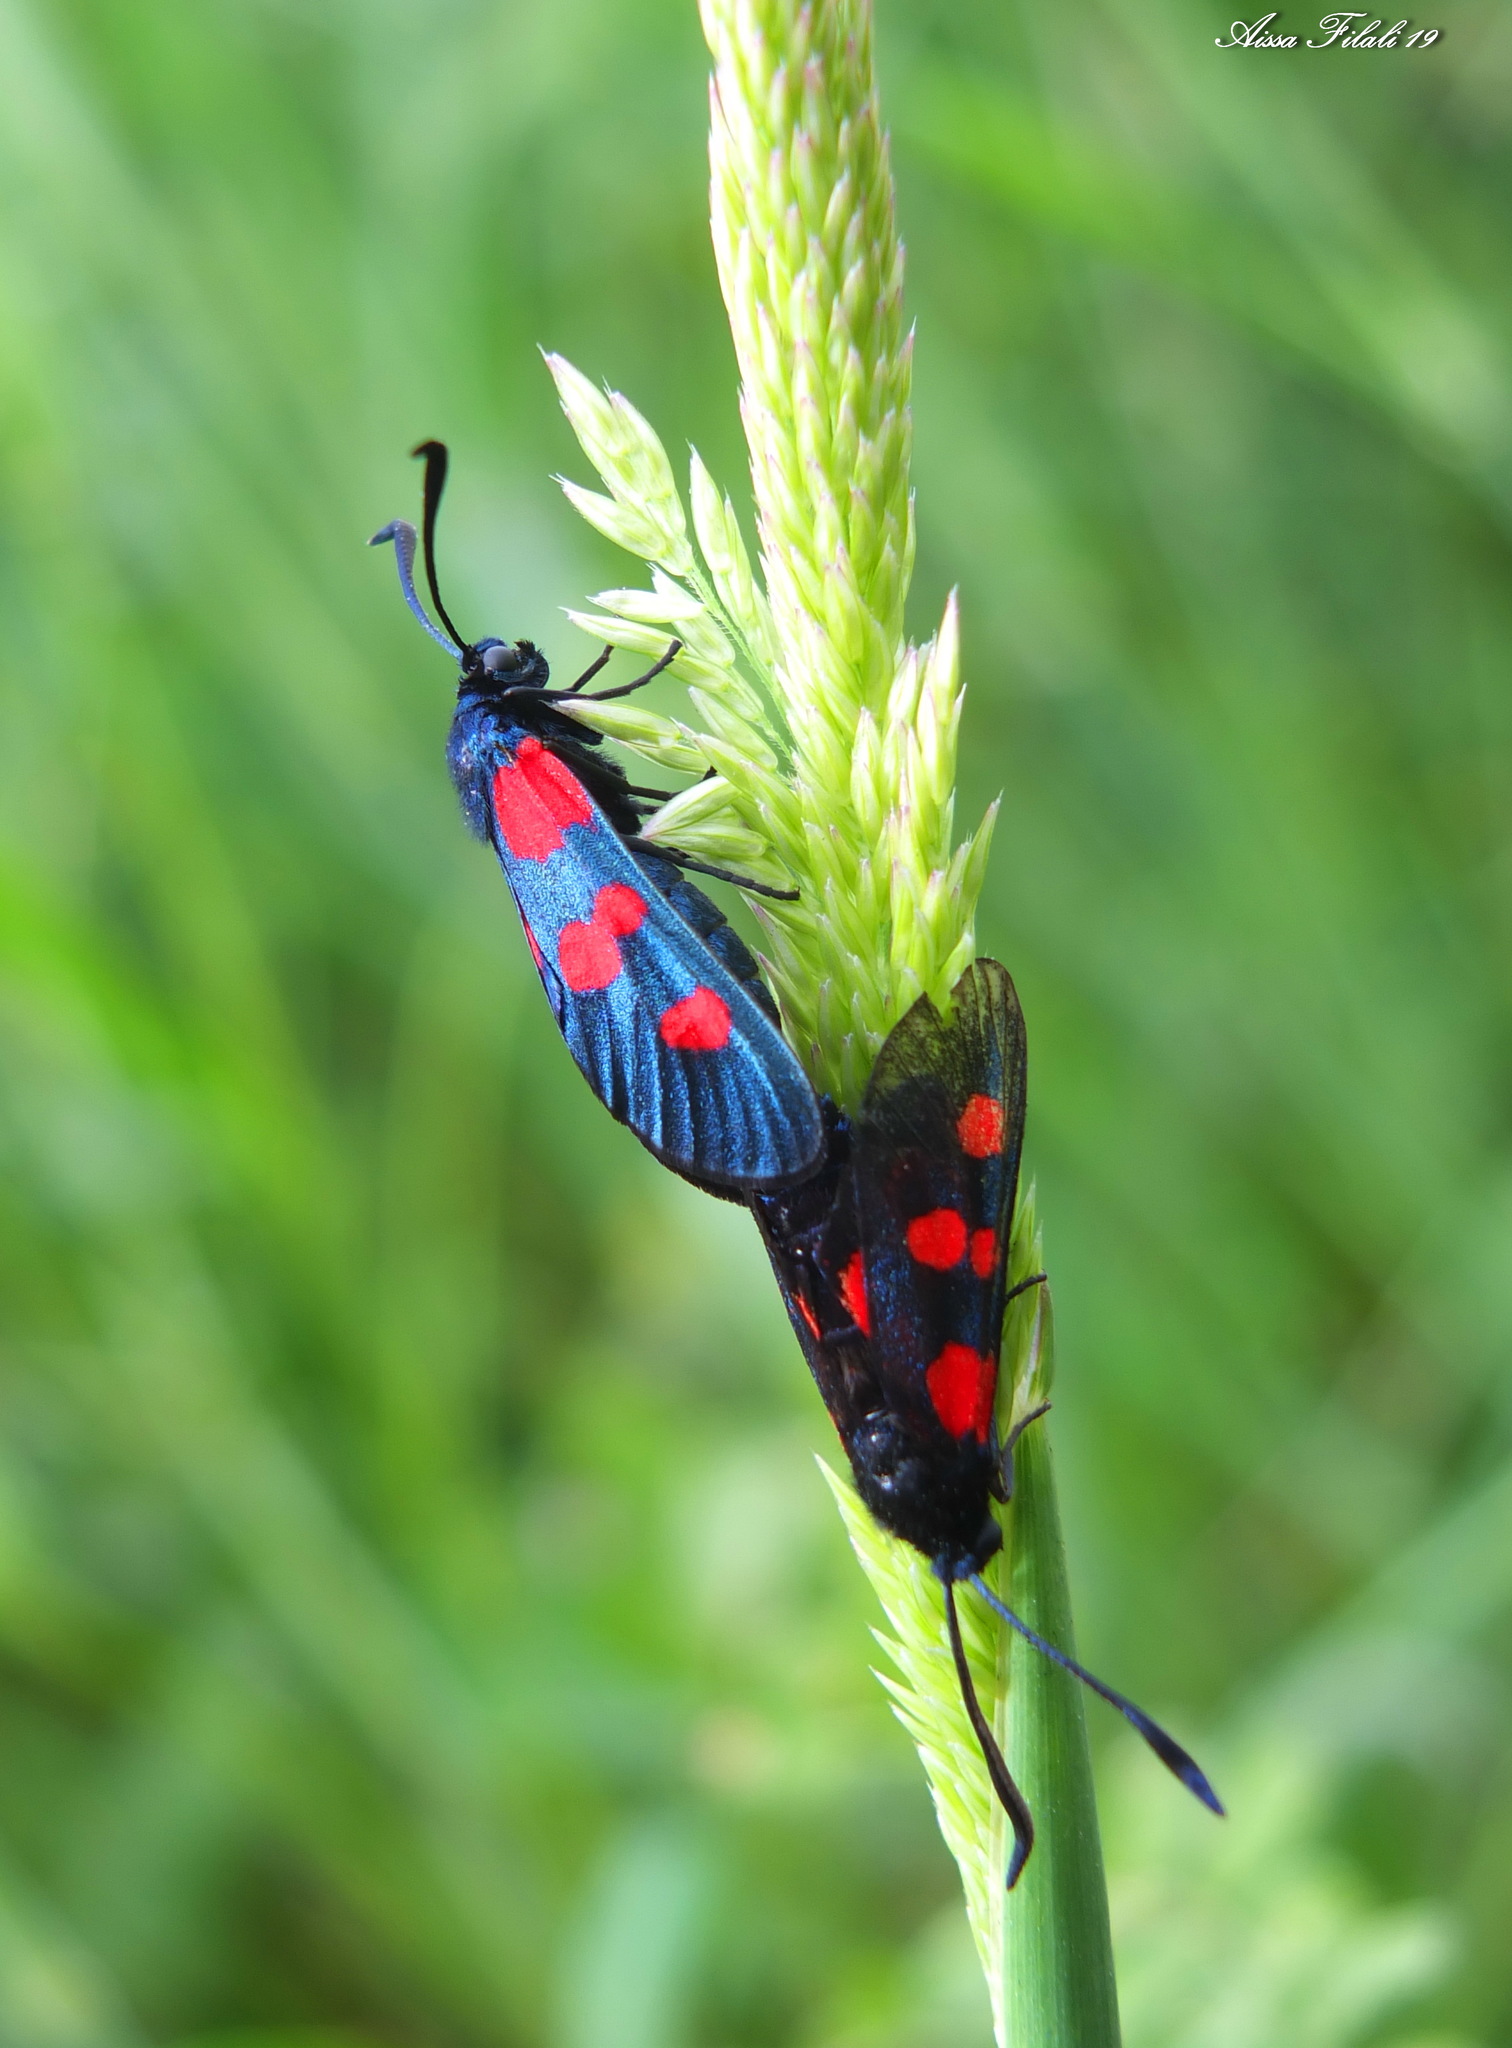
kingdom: Animalia
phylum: Arthropoda
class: Insecta
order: Lepidoptera
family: Zygaenidae
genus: Zygaena
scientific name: Zygaena trifolii
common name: Five-spot burnet
